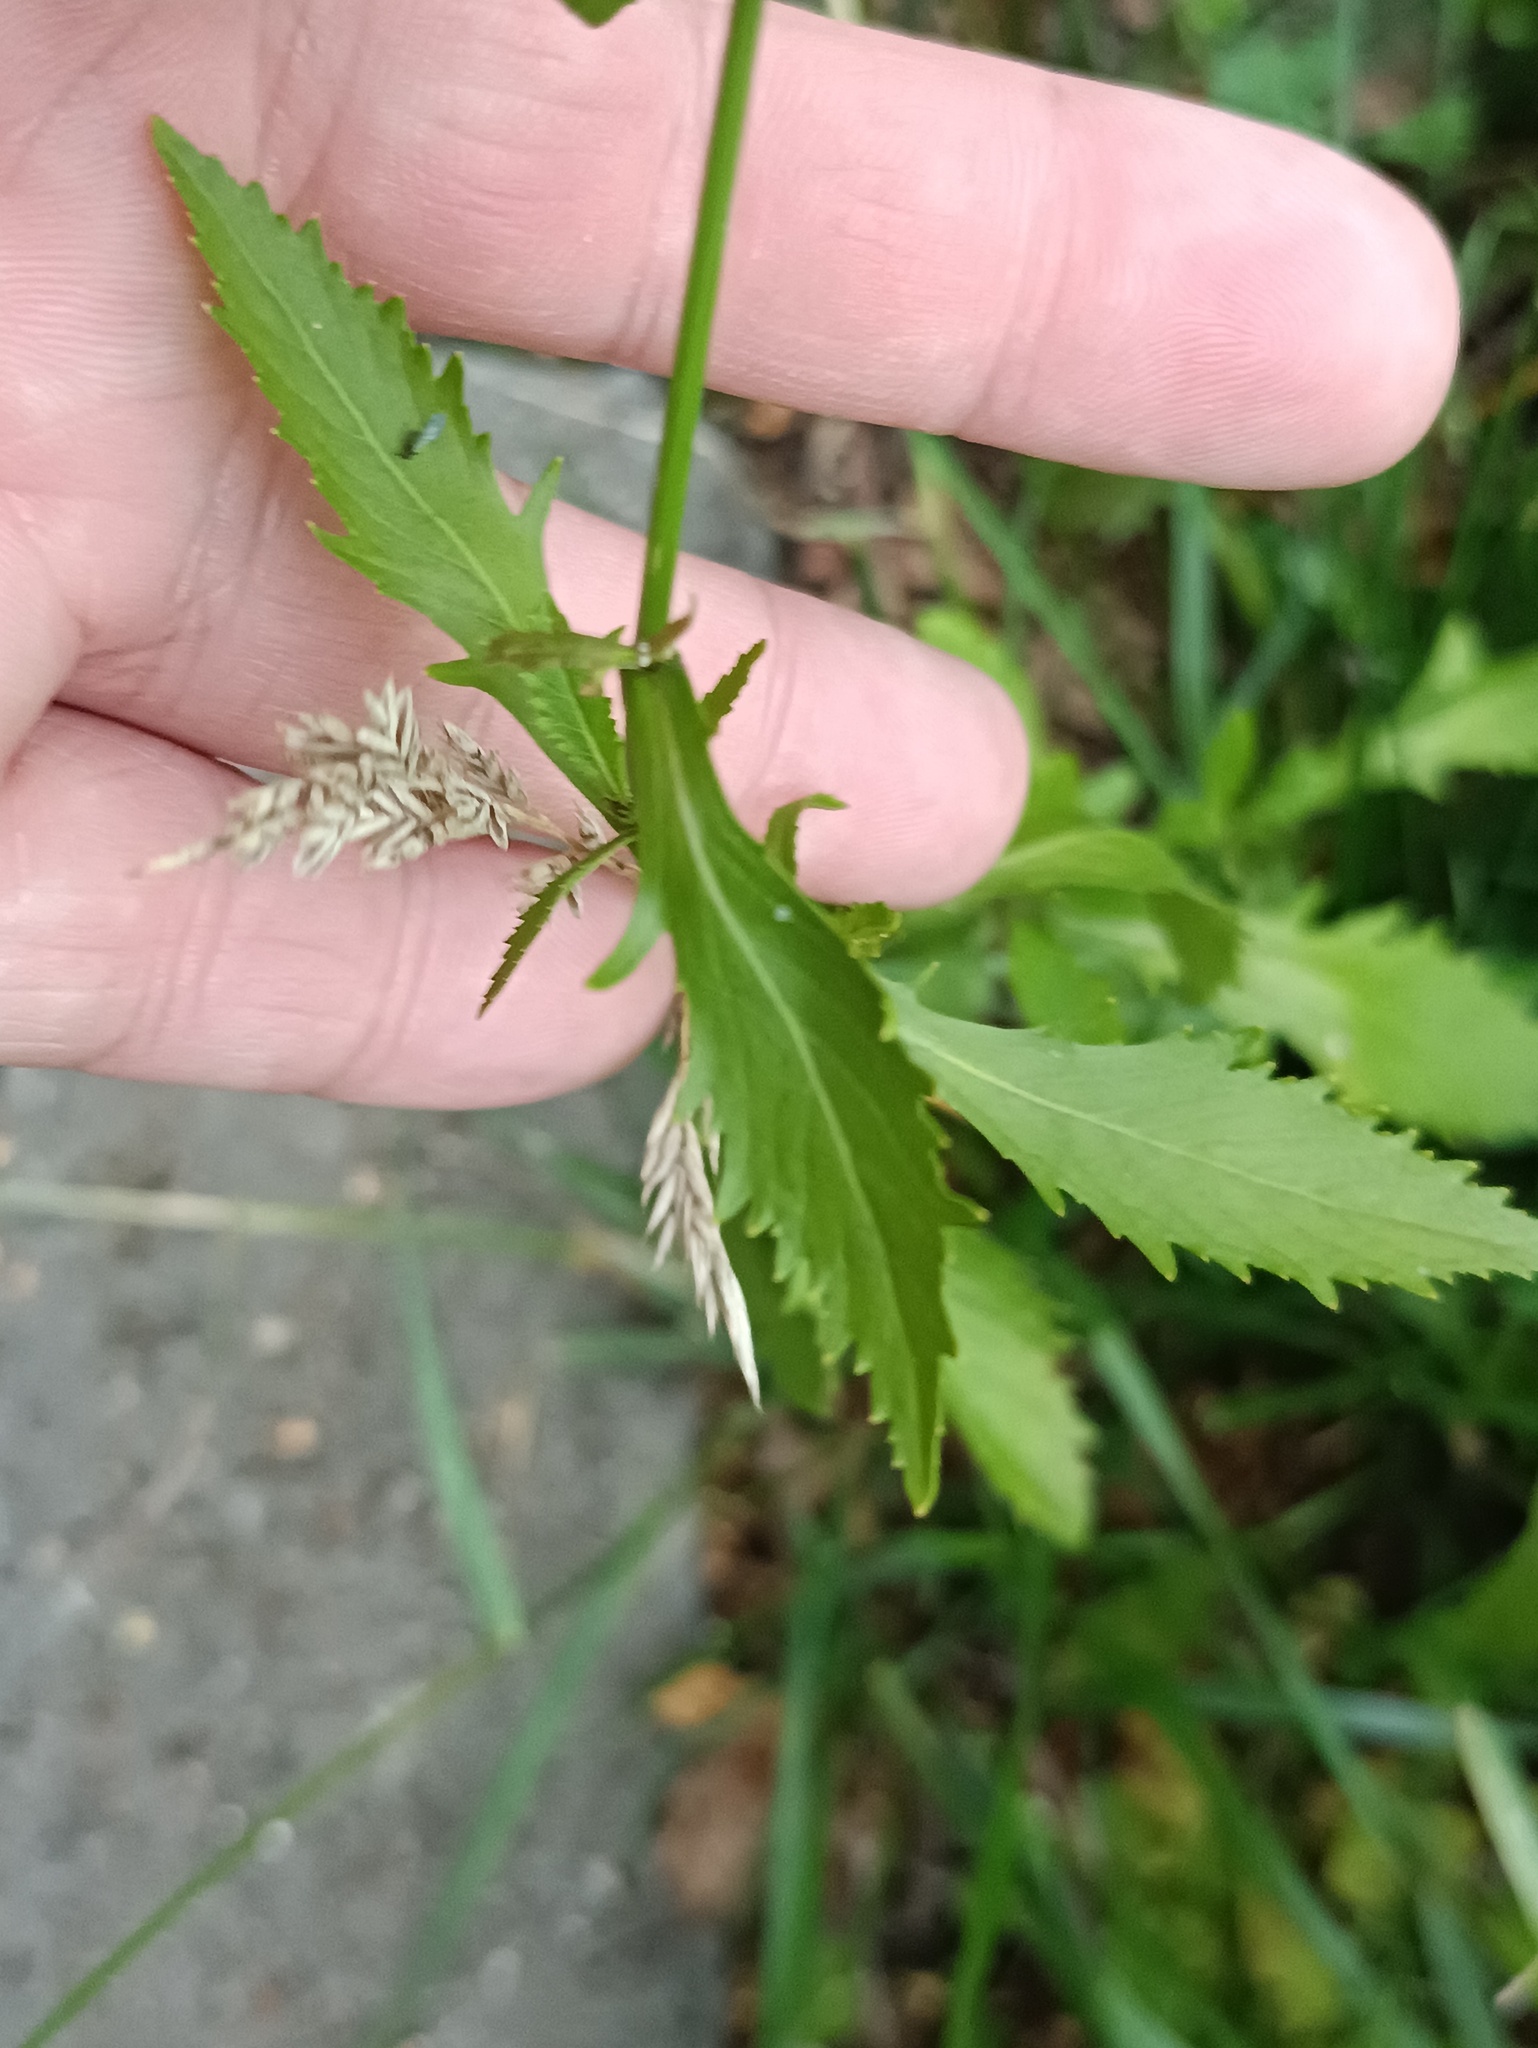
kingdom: Plantae
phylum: Tracheophyta
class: Magnoliopsida
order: Brassicales
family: Brassicaceae
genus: Rorippa
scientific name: Rorippa austriaca
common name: Austrian yellow-cress
